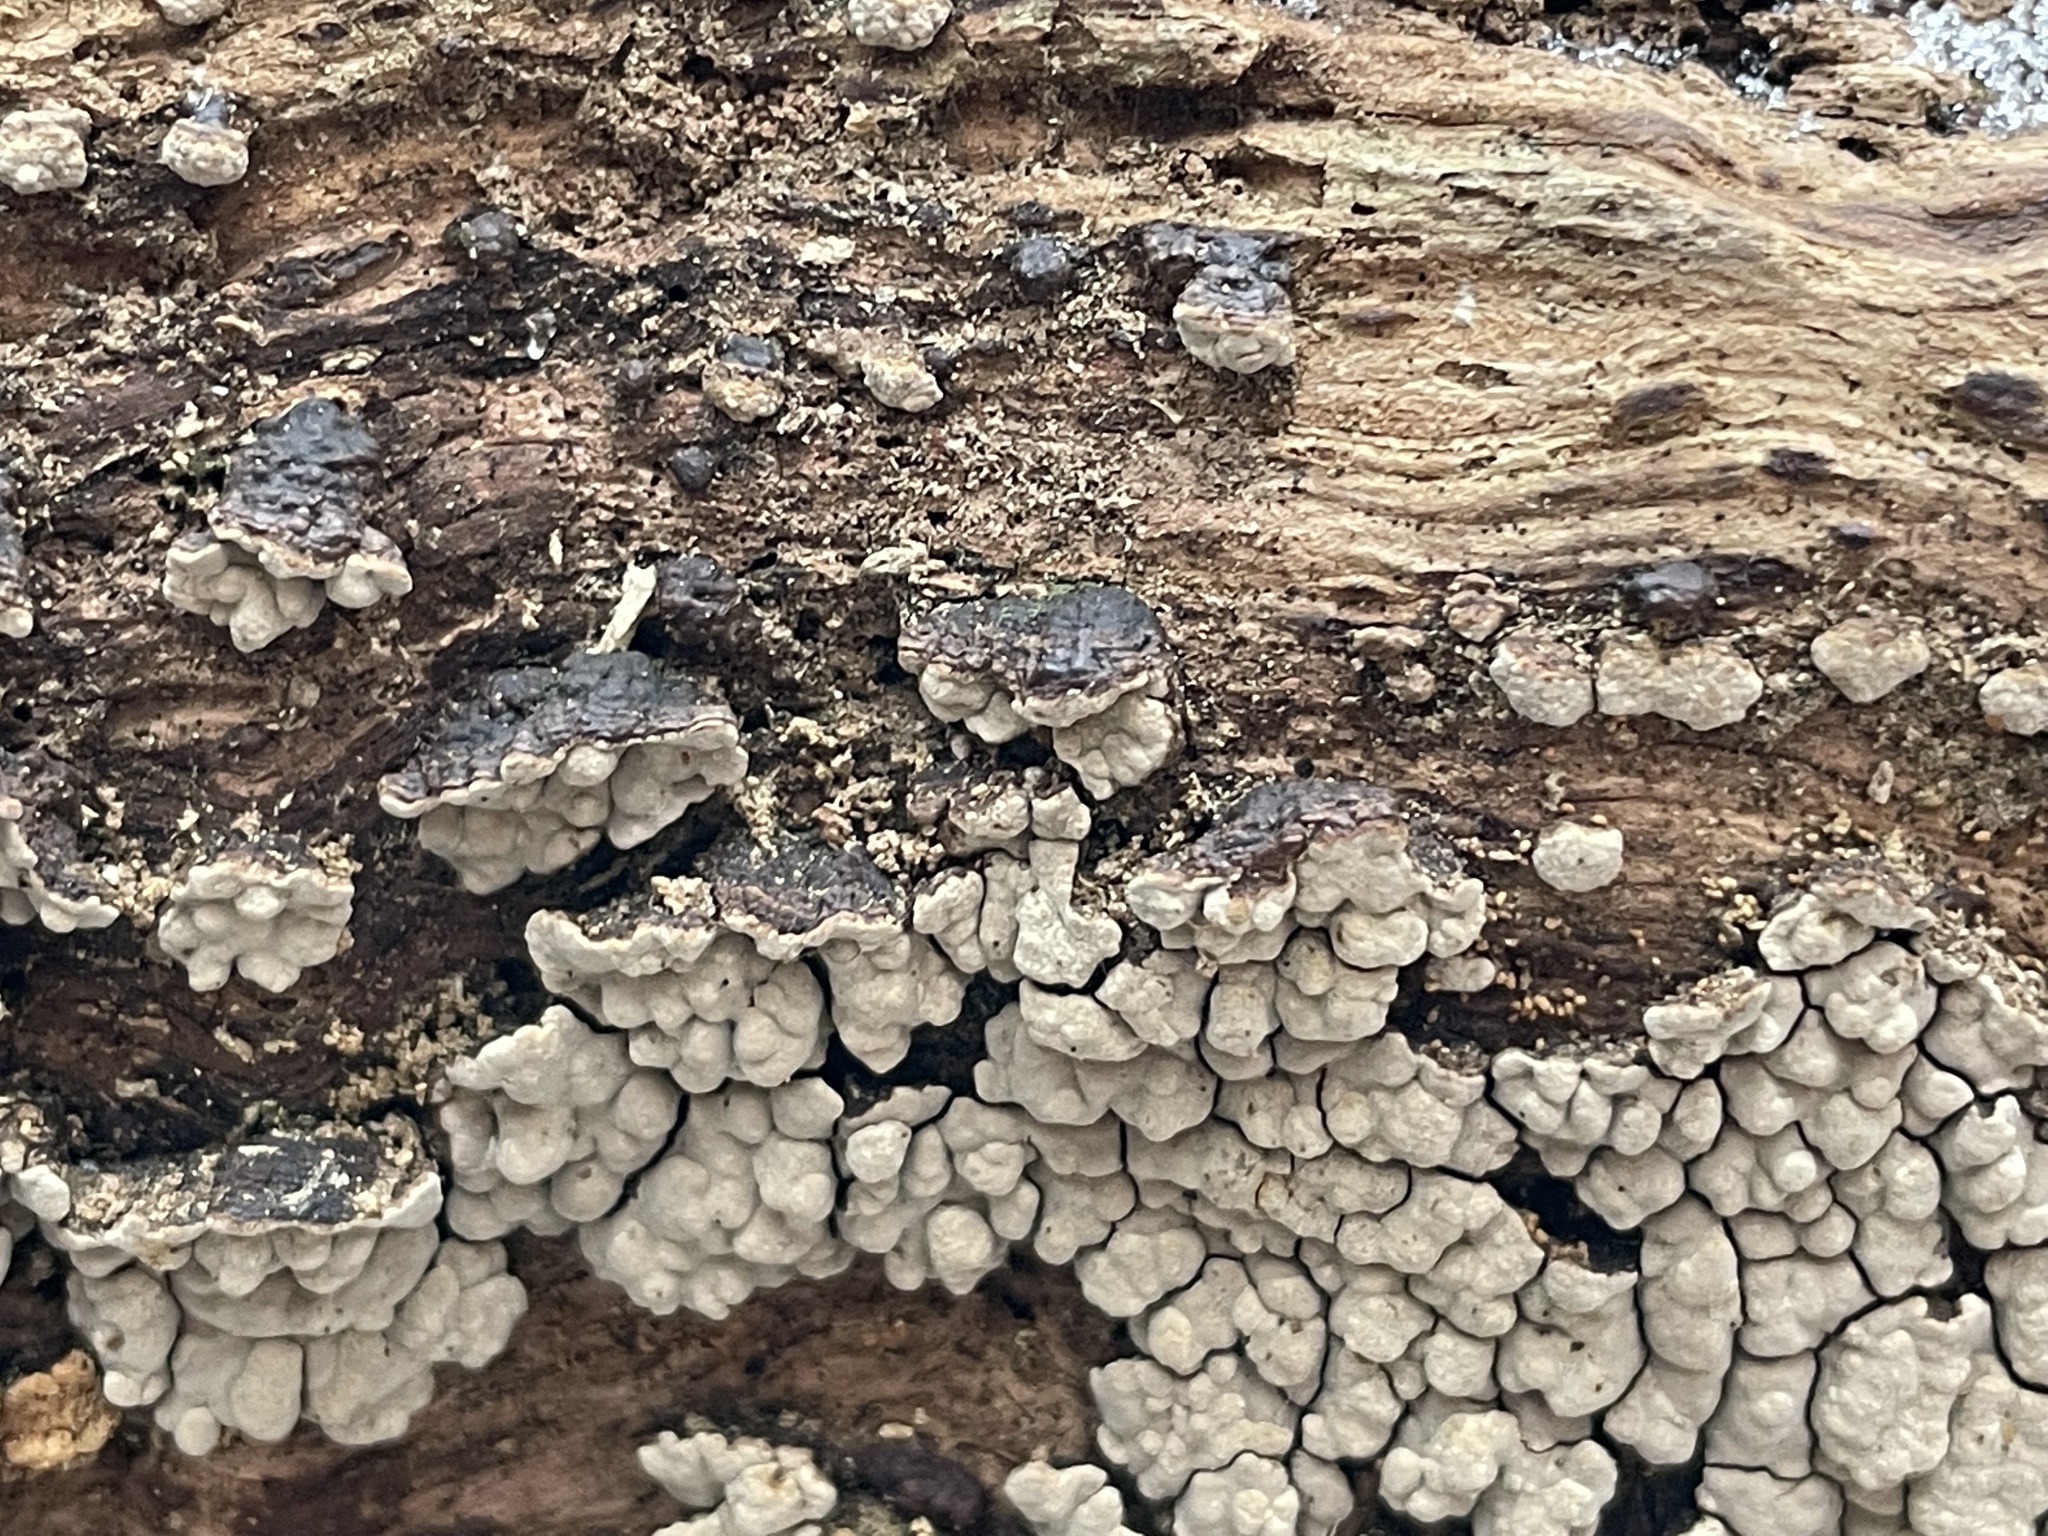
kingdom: Fungi
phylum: Basidiomycota
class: Agaricomycetes
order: Russulales
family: Stereaceae
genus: Xylobolus
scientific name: Xylobolus frustulatus
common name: Ceramic parchment
